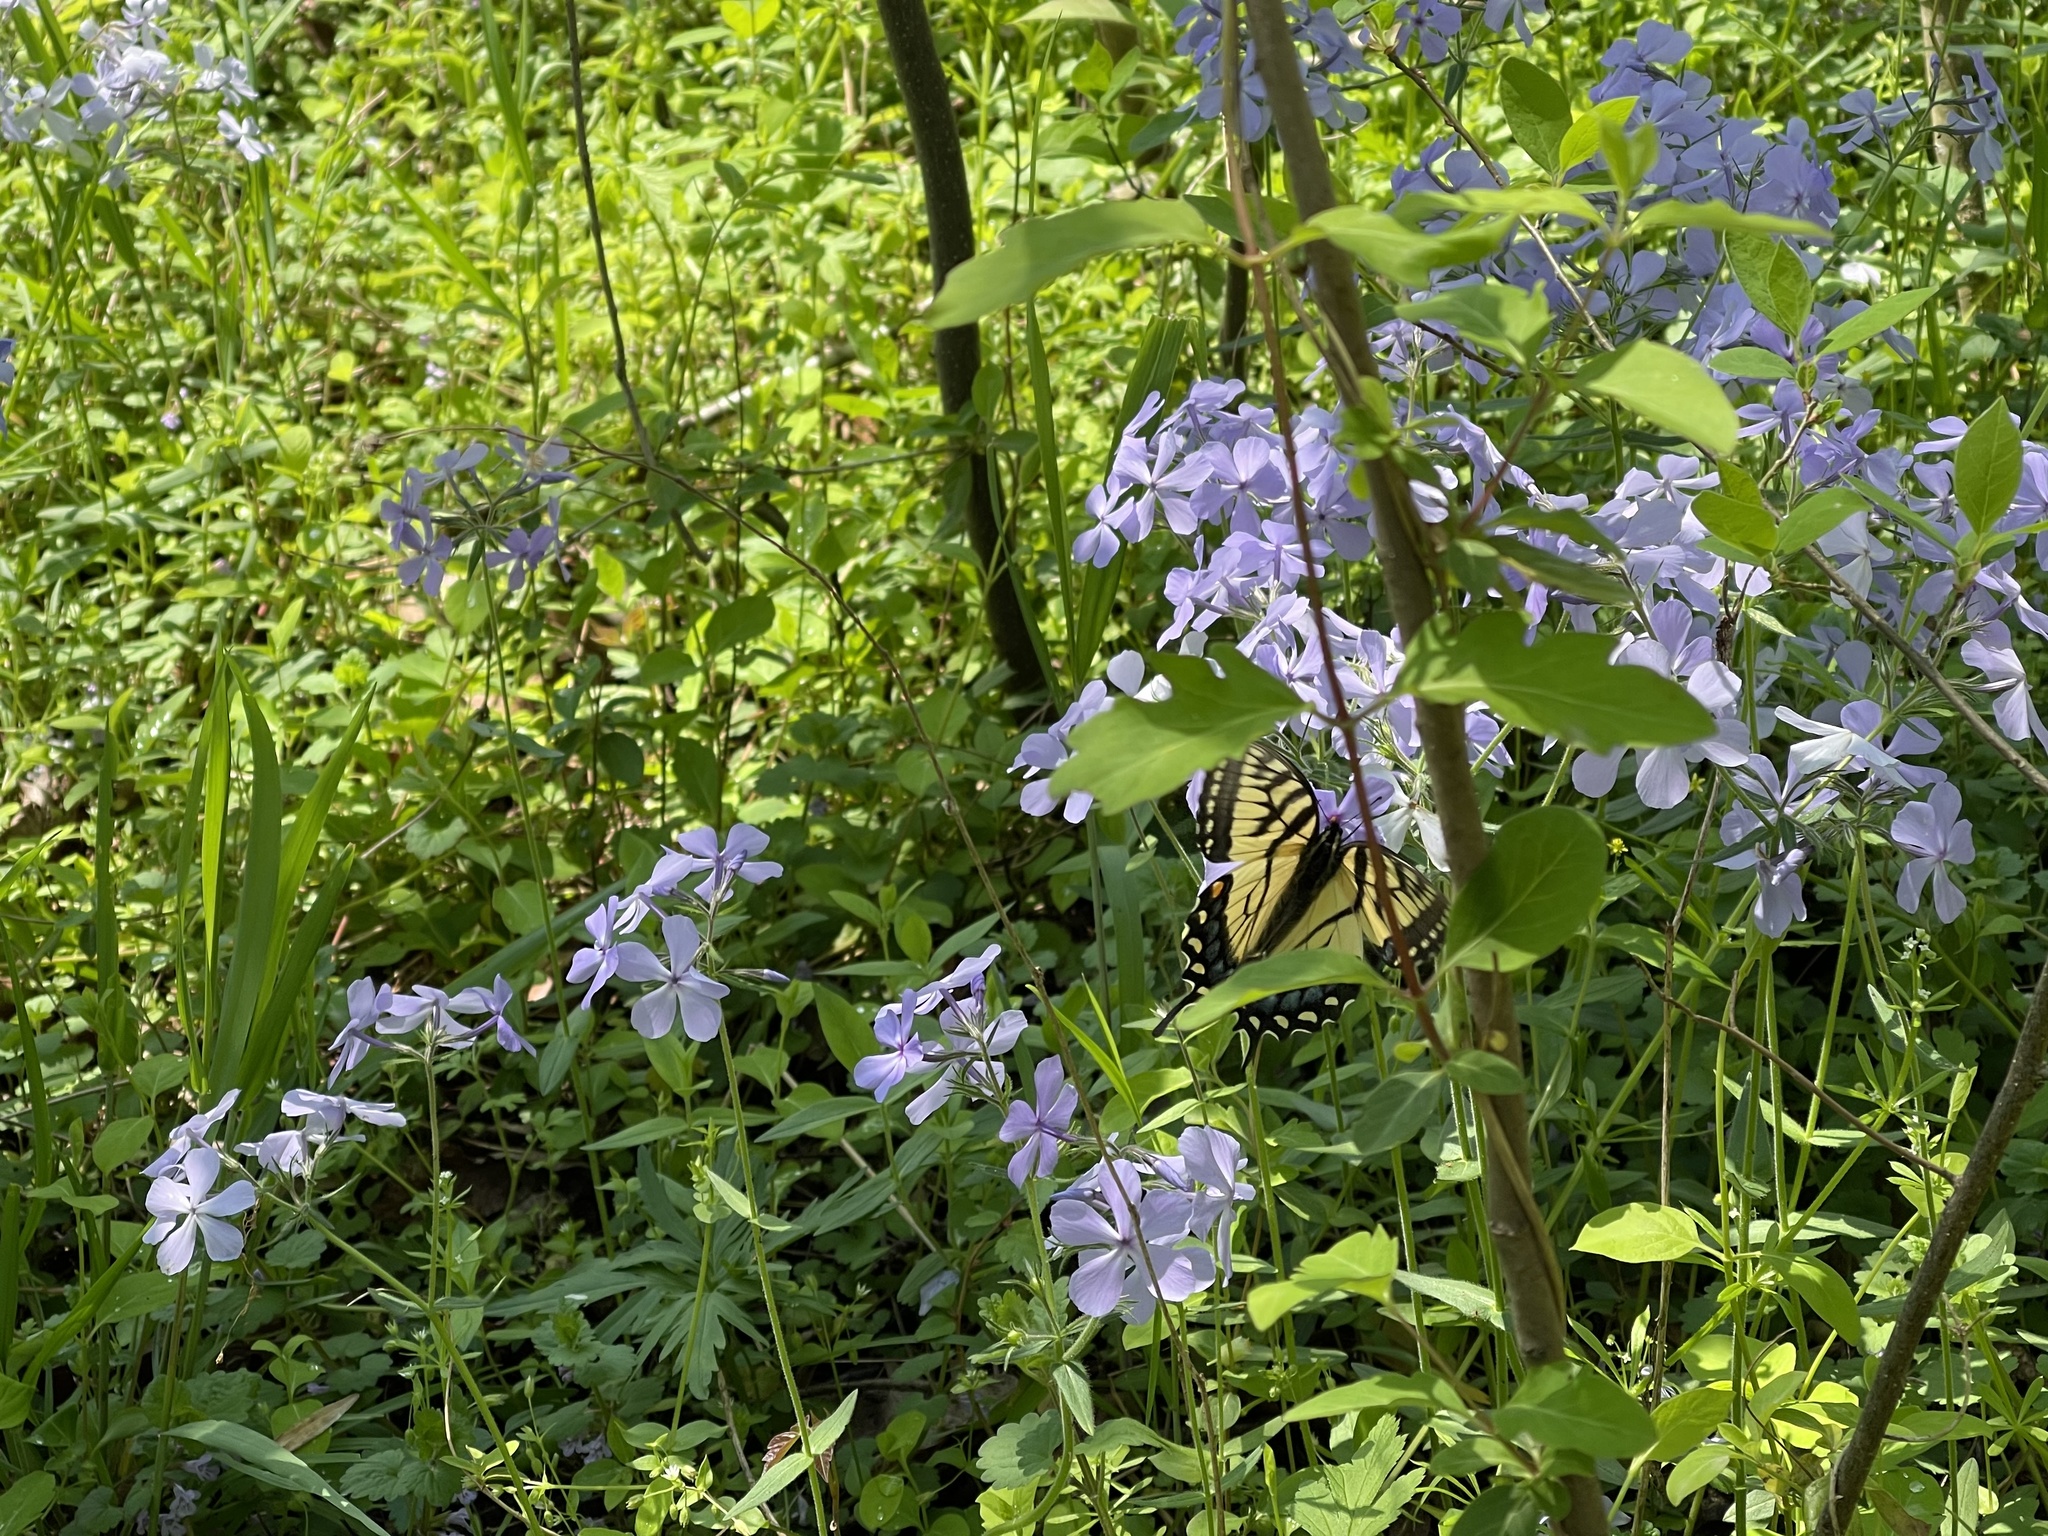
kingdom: Animalia
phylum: Arthropoda
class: Insecta
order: Lepidoptera
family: Papilionidae
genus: Papilio
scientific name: Papilio glaucus
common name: Tiger swallowtail
